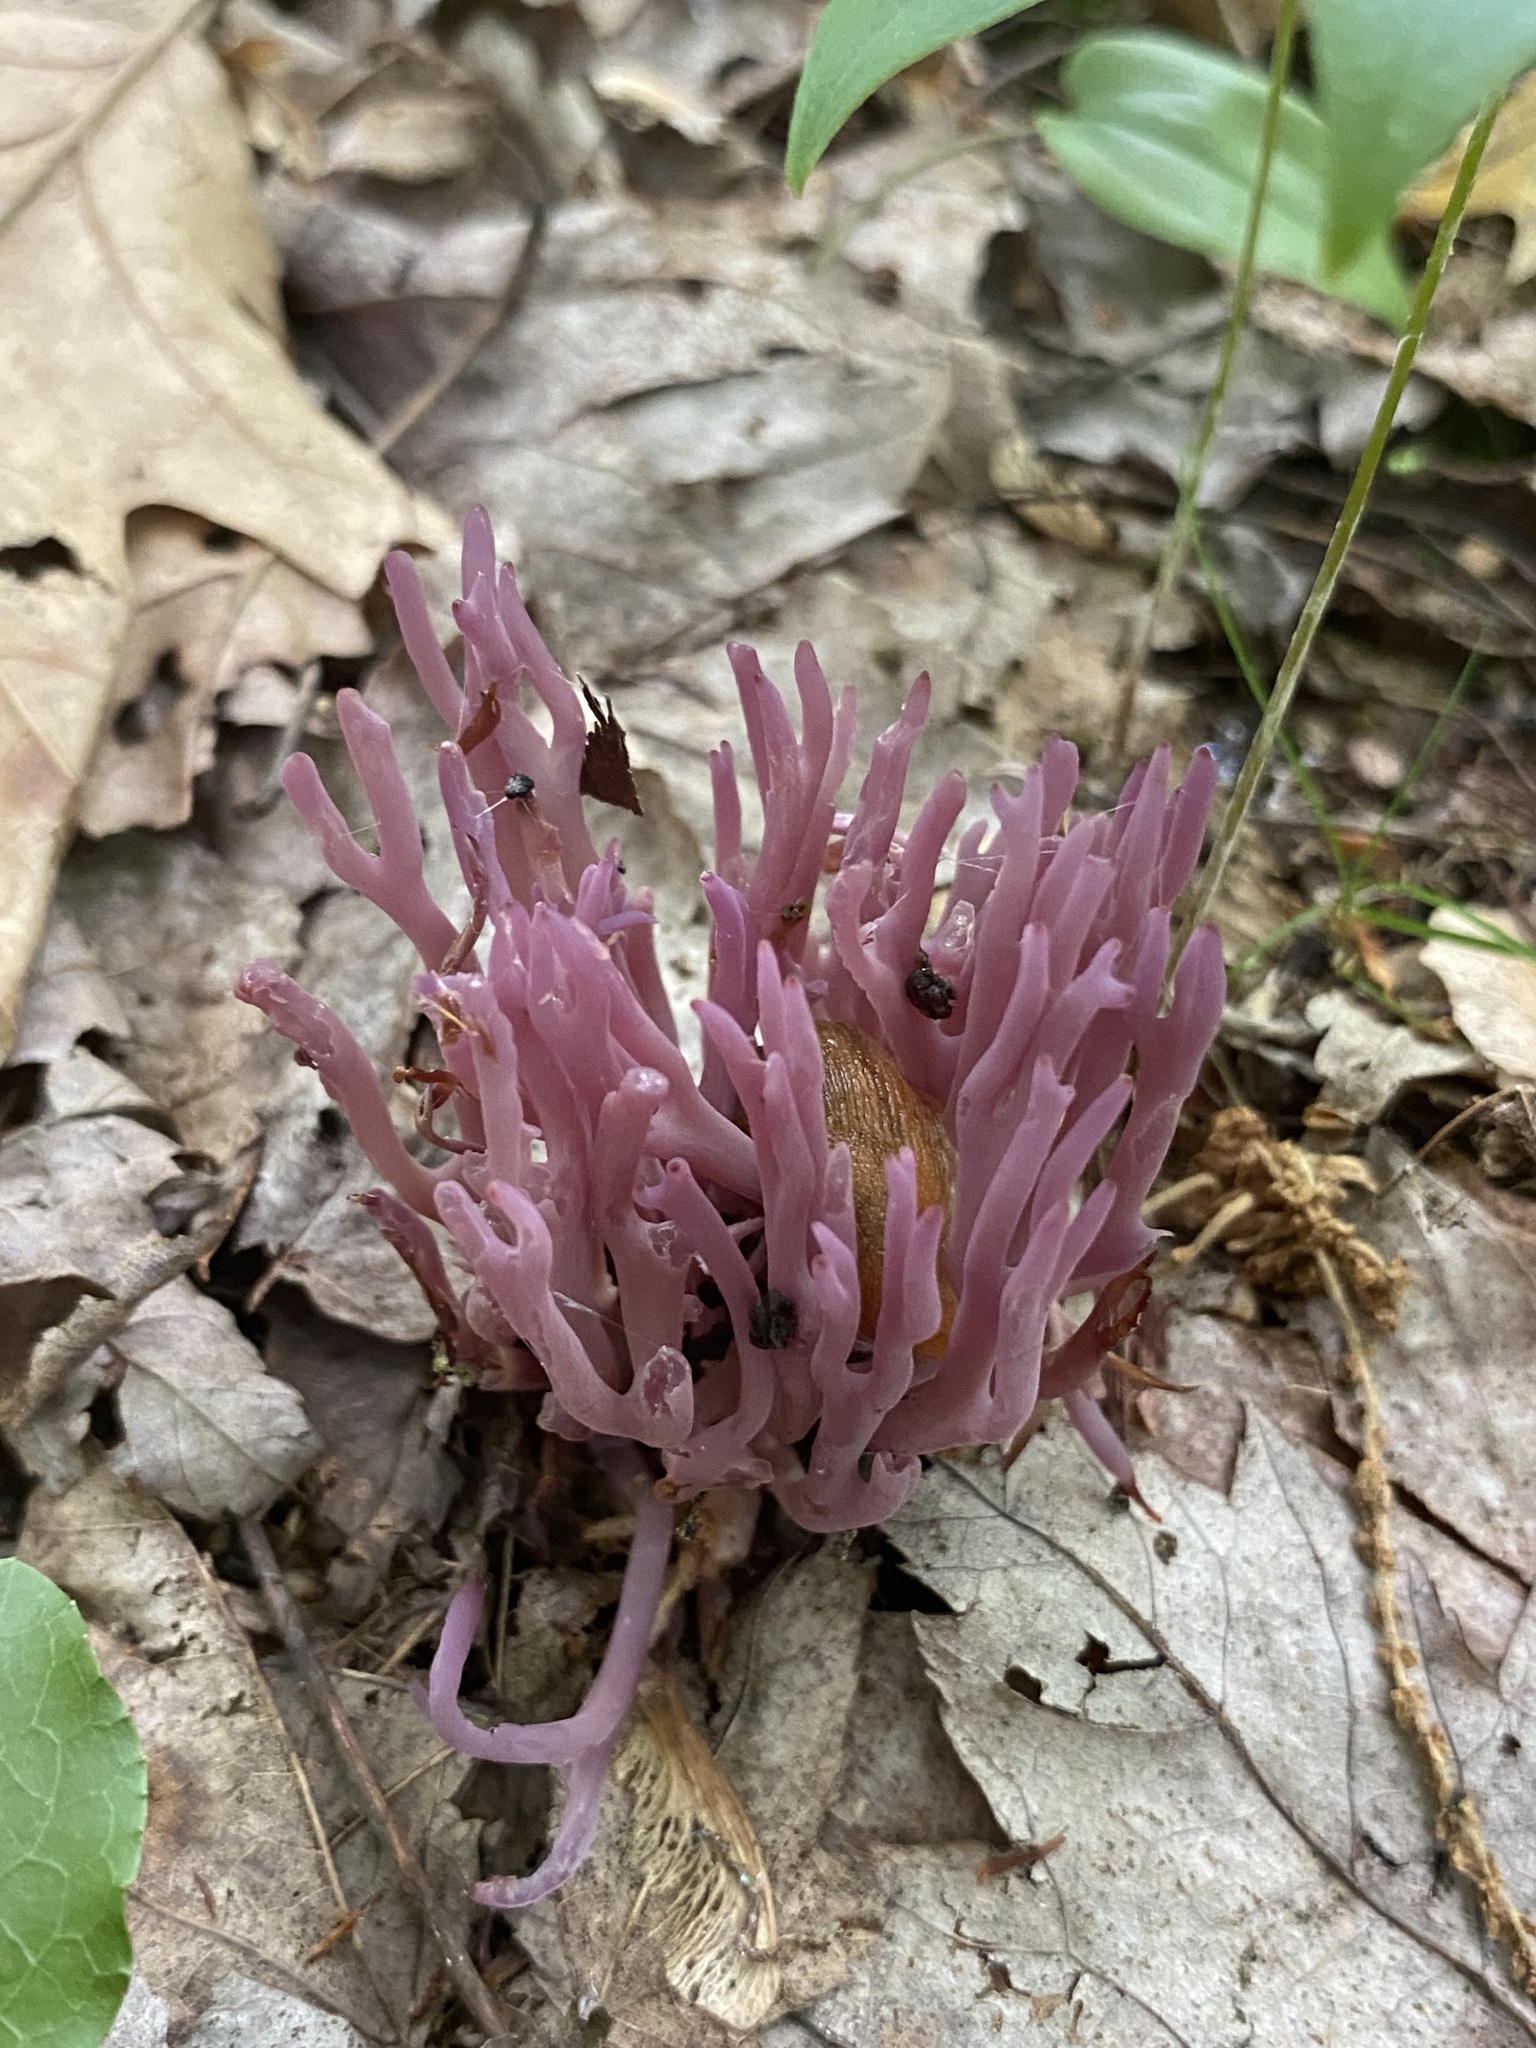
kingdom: Fungi
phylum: Basidiomycota
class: Agaricomycetes
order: Agaricales
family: Clavariaceae
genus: Clavaria
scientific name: Clavaria zollingeri
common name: Violet coral
